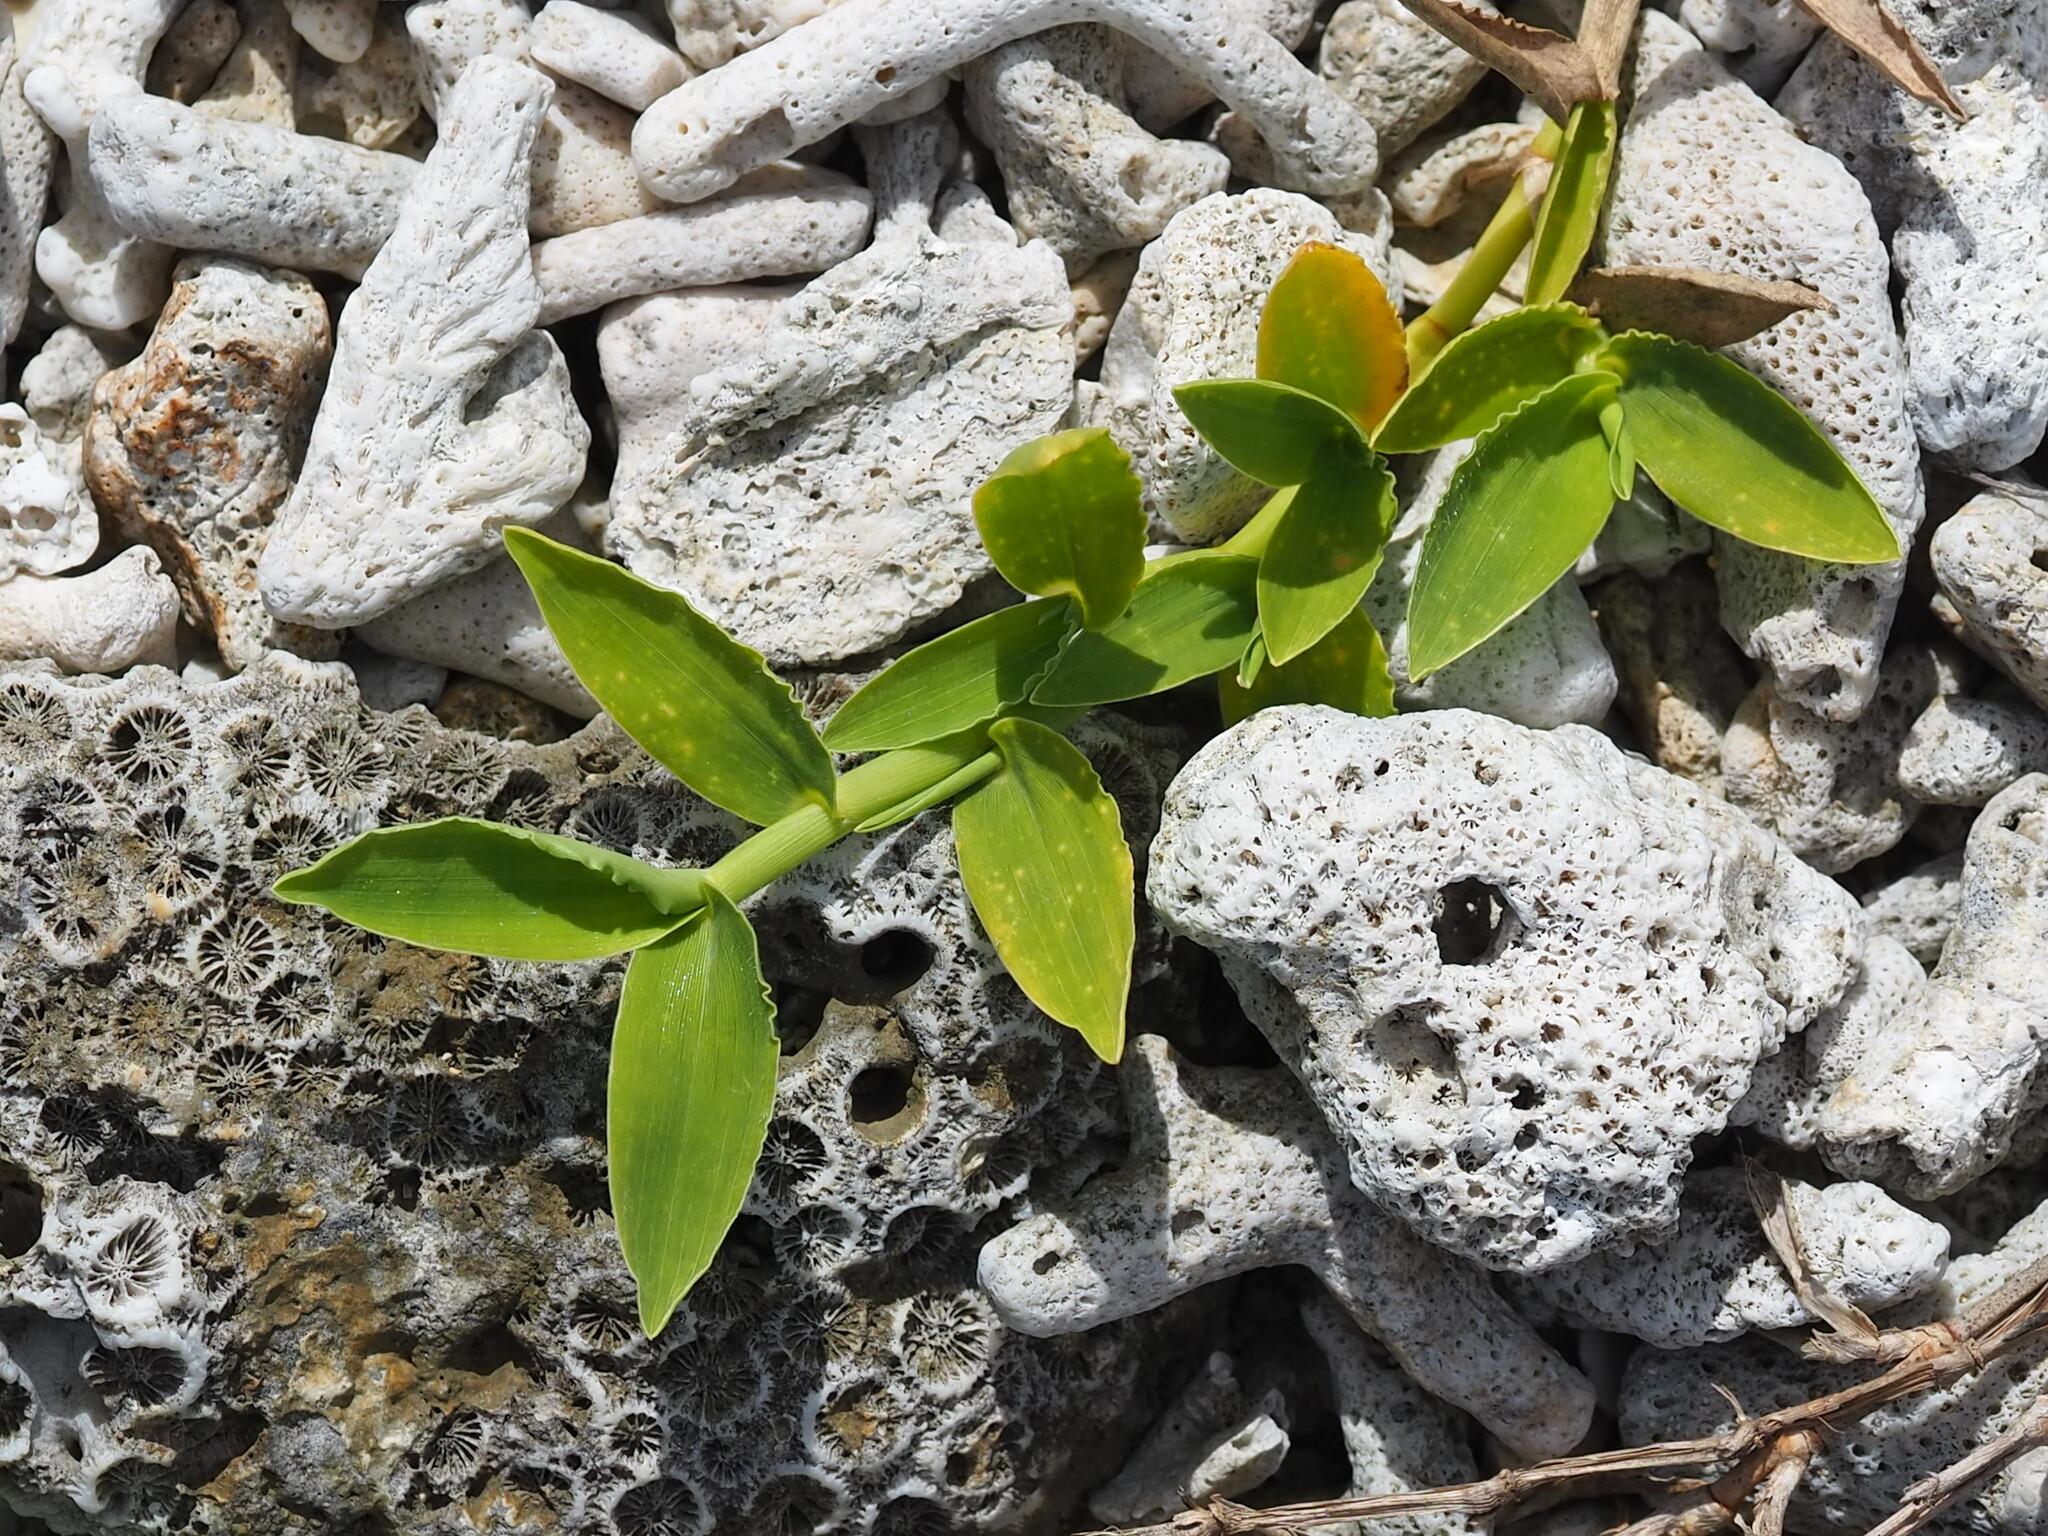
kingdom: Plantae
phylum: Tracheophyta
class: Liliopsida
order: Poales
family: Poaceae
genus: Thuarea
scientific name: Thuarea involuta
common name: Tropical beach grass
